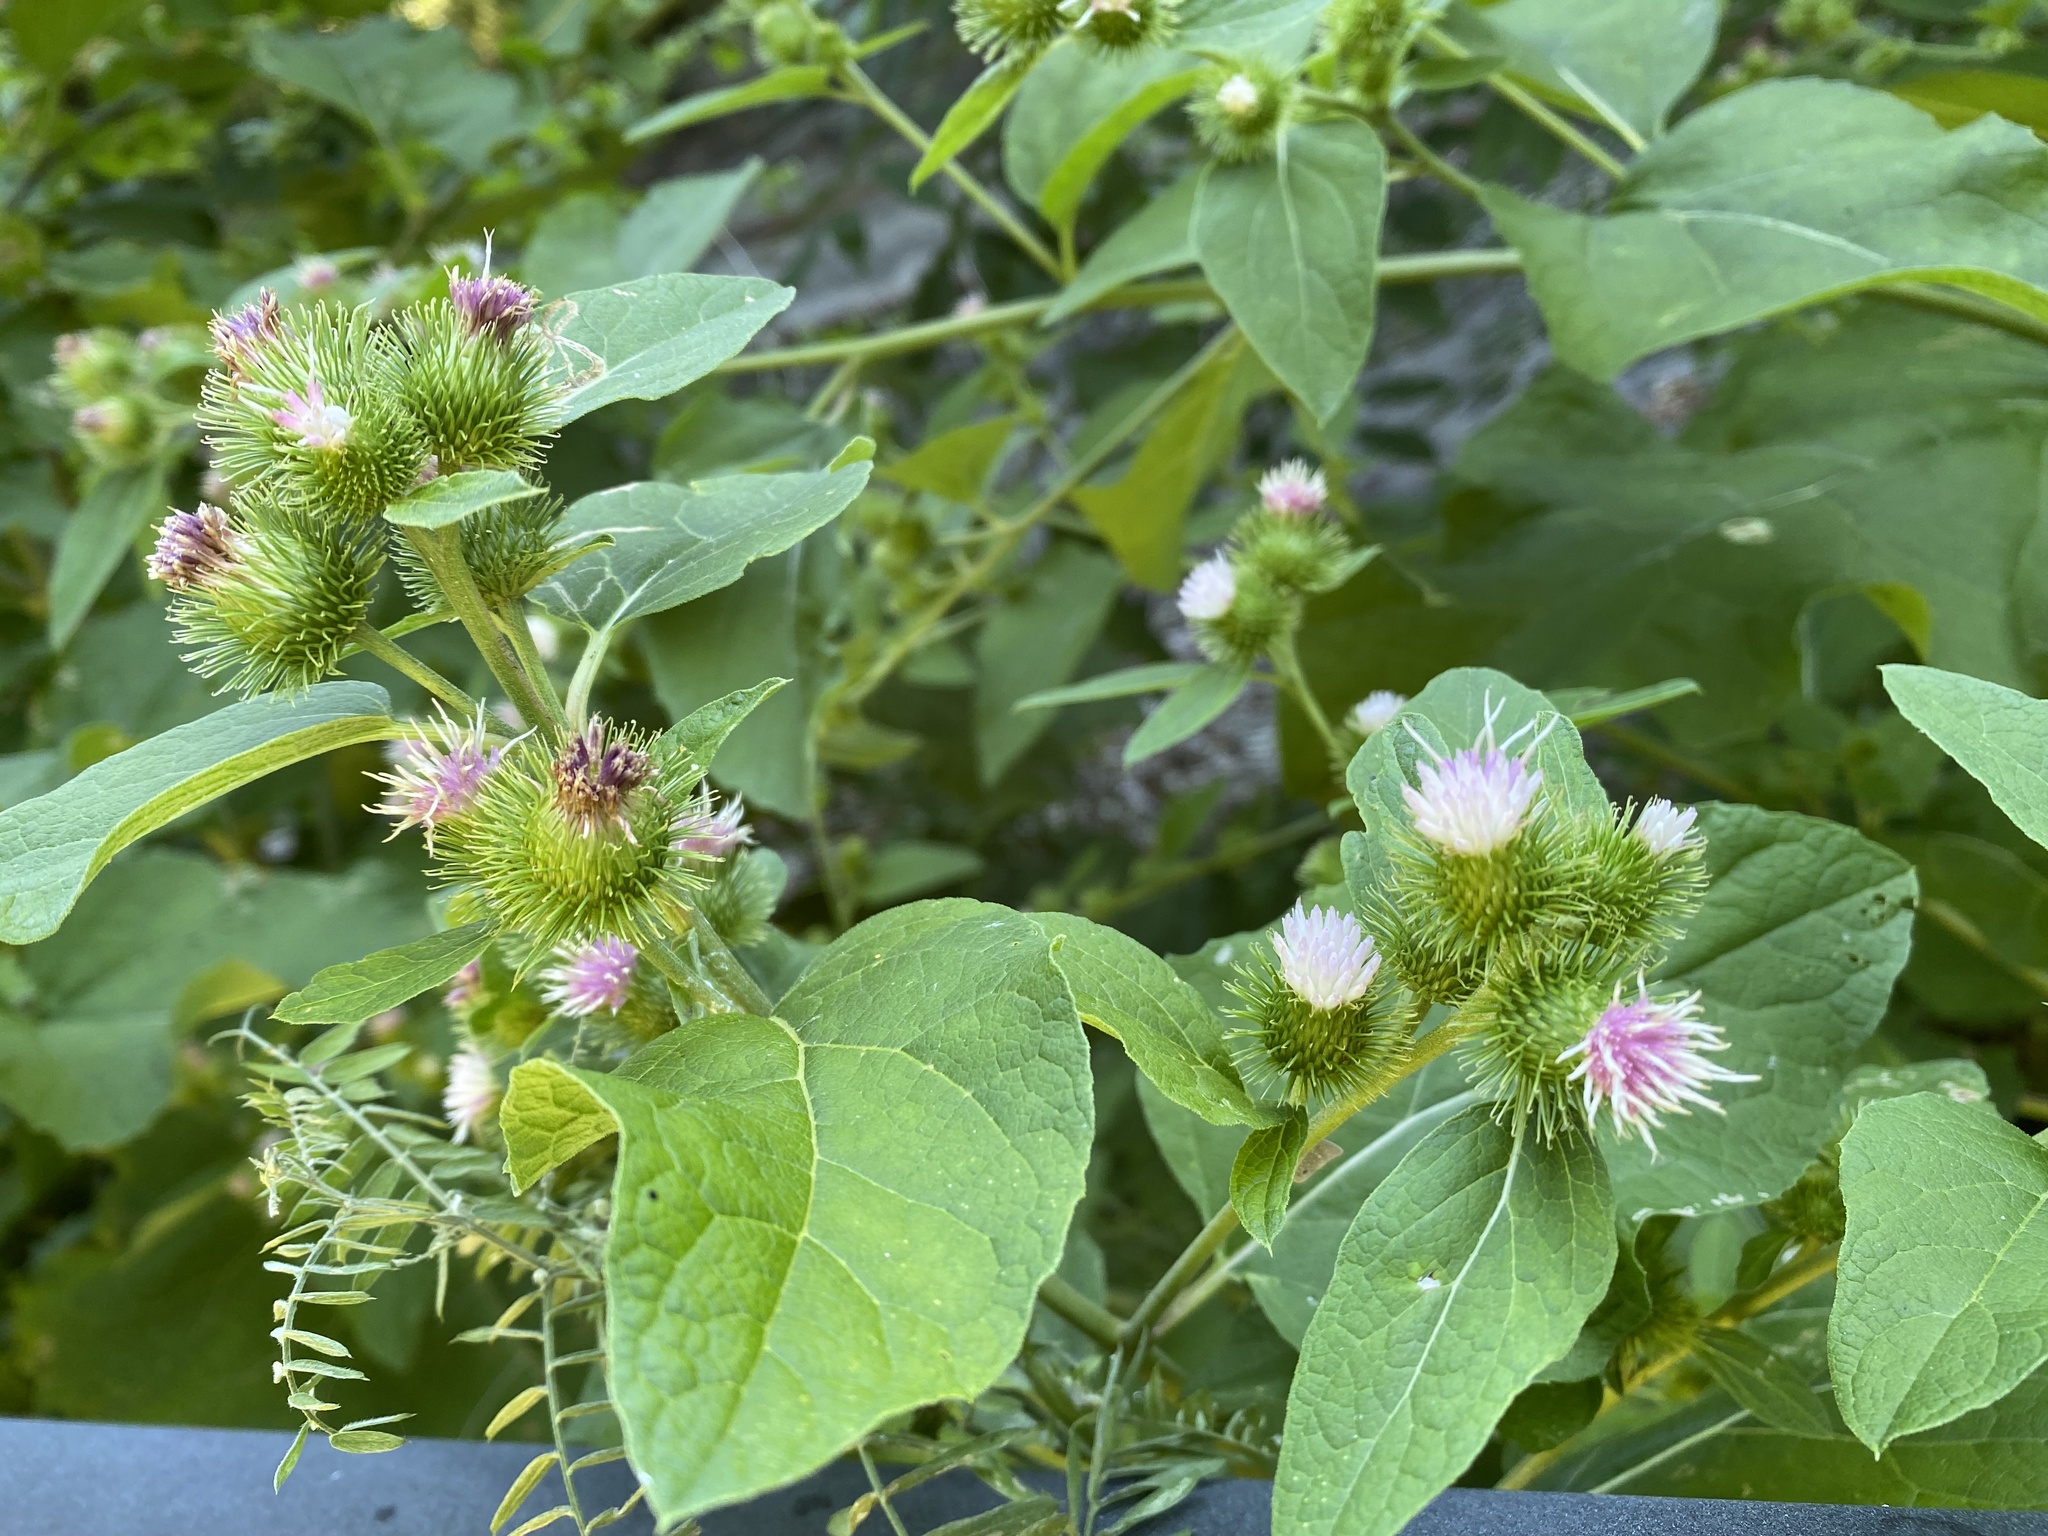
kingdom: Plantae
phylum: Tracheophyta
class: Magnoliopsida
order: Asterales
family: Asteraceae
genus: Arctium
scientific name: Arctium minus
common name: Lesser burdock
